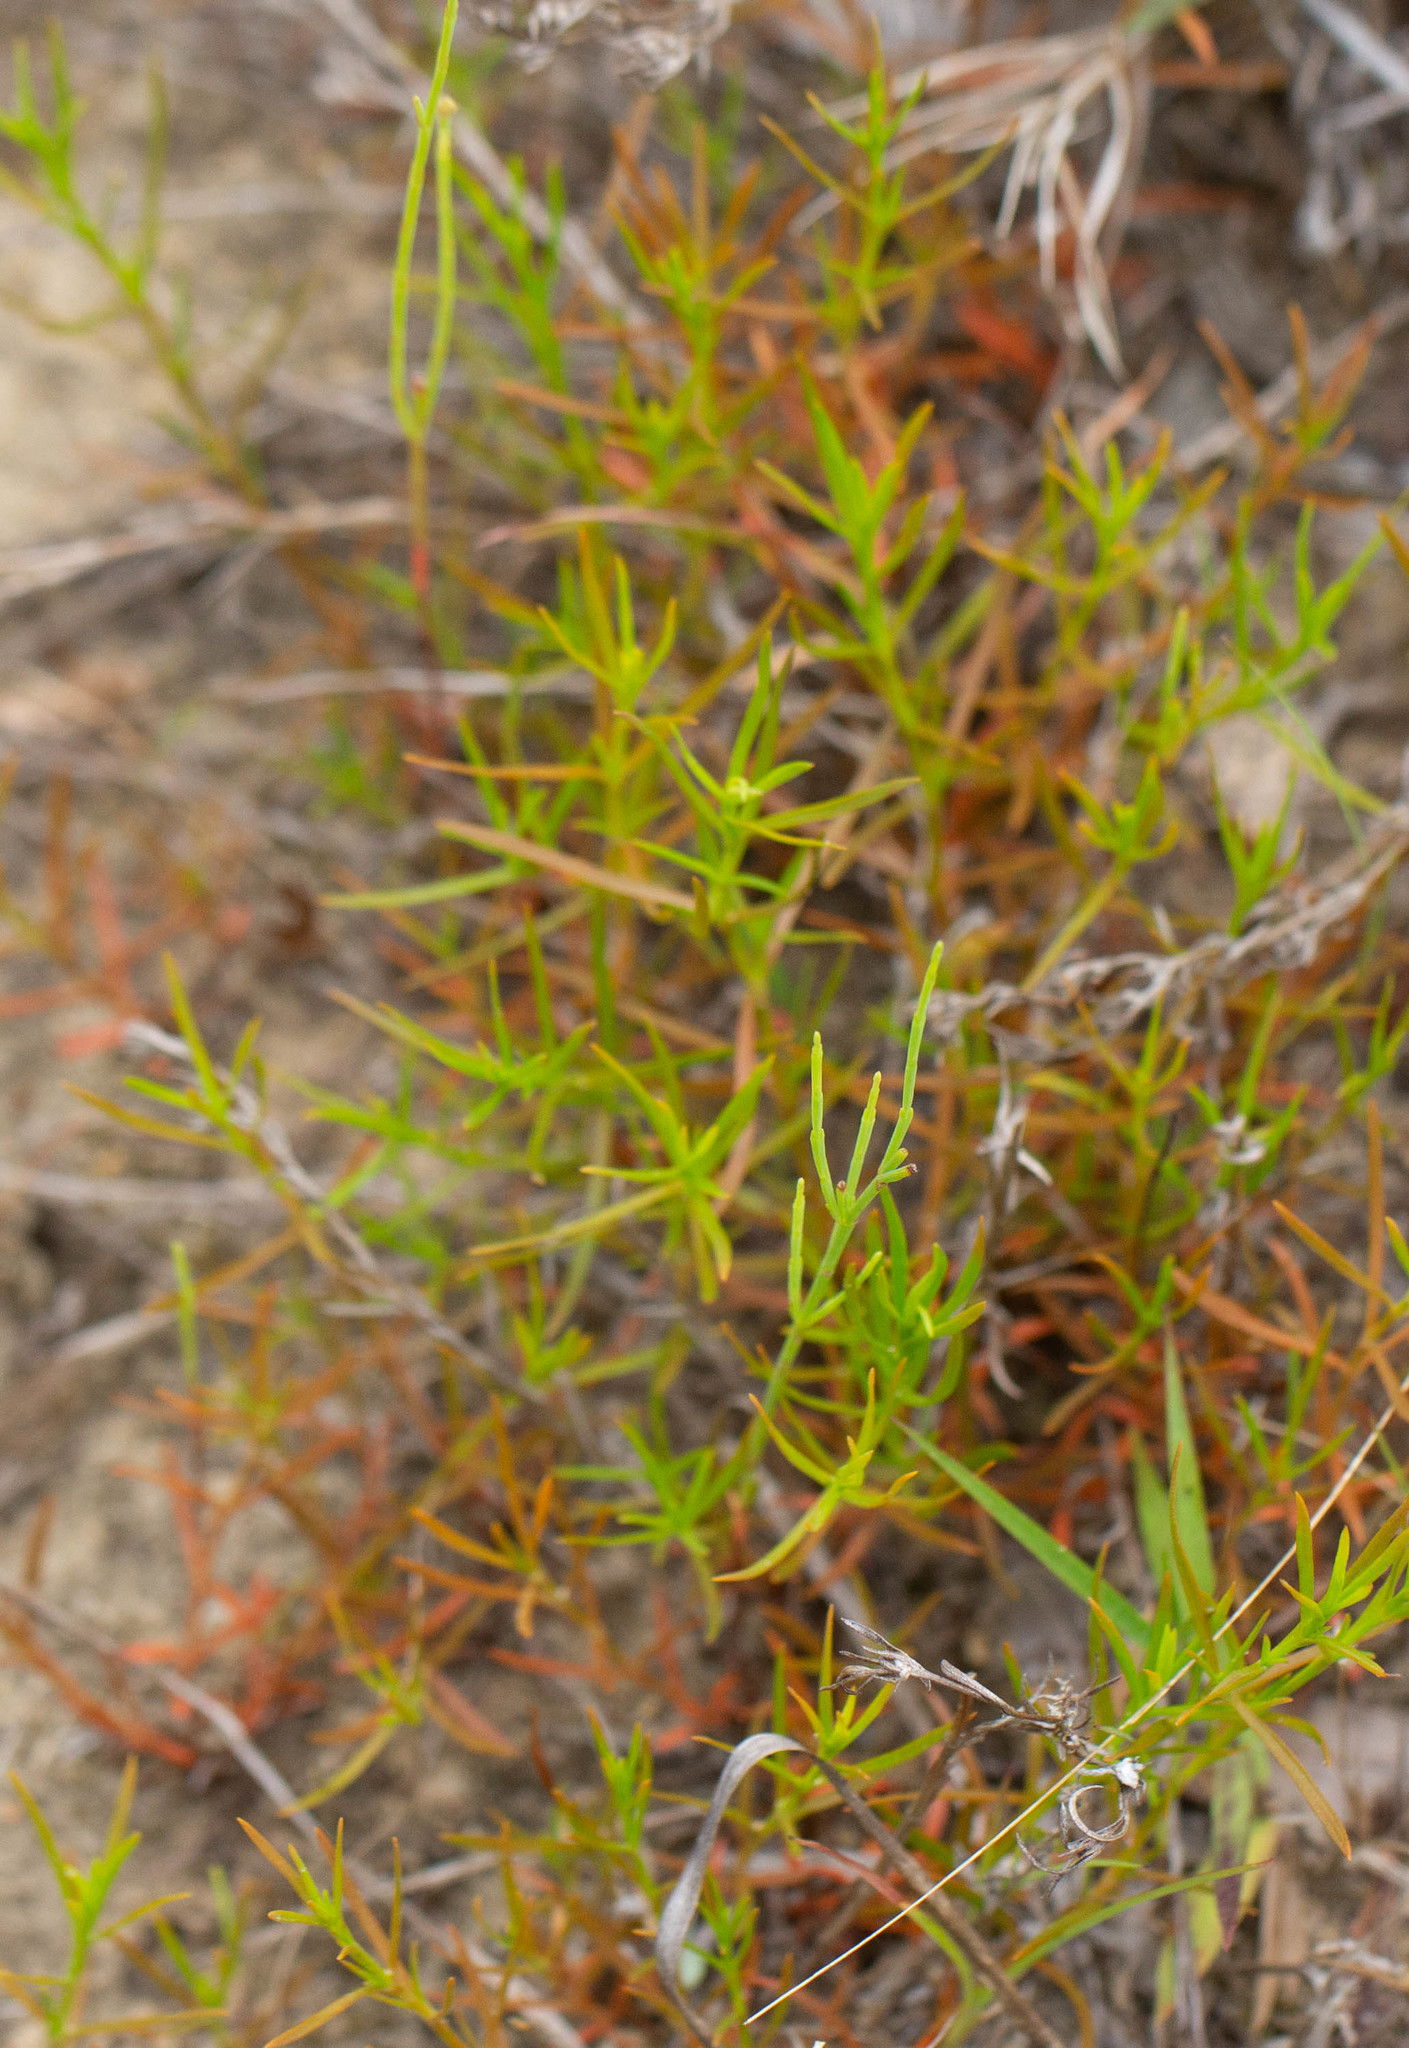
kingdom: Plantae
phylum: Tracheophyta
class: Magnoliopsida
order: Lamiales
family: Tetrachondraceae
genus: Polypremum
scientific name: Polypremum procumbens
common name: Juniper-leaf
